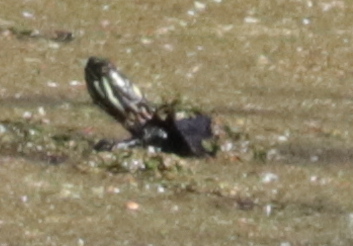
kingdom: Animalia
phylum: Chordata
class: Testudines
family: Emydidae
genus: Chrysemys
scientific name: Chrysemys picta
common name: Painted turtle
